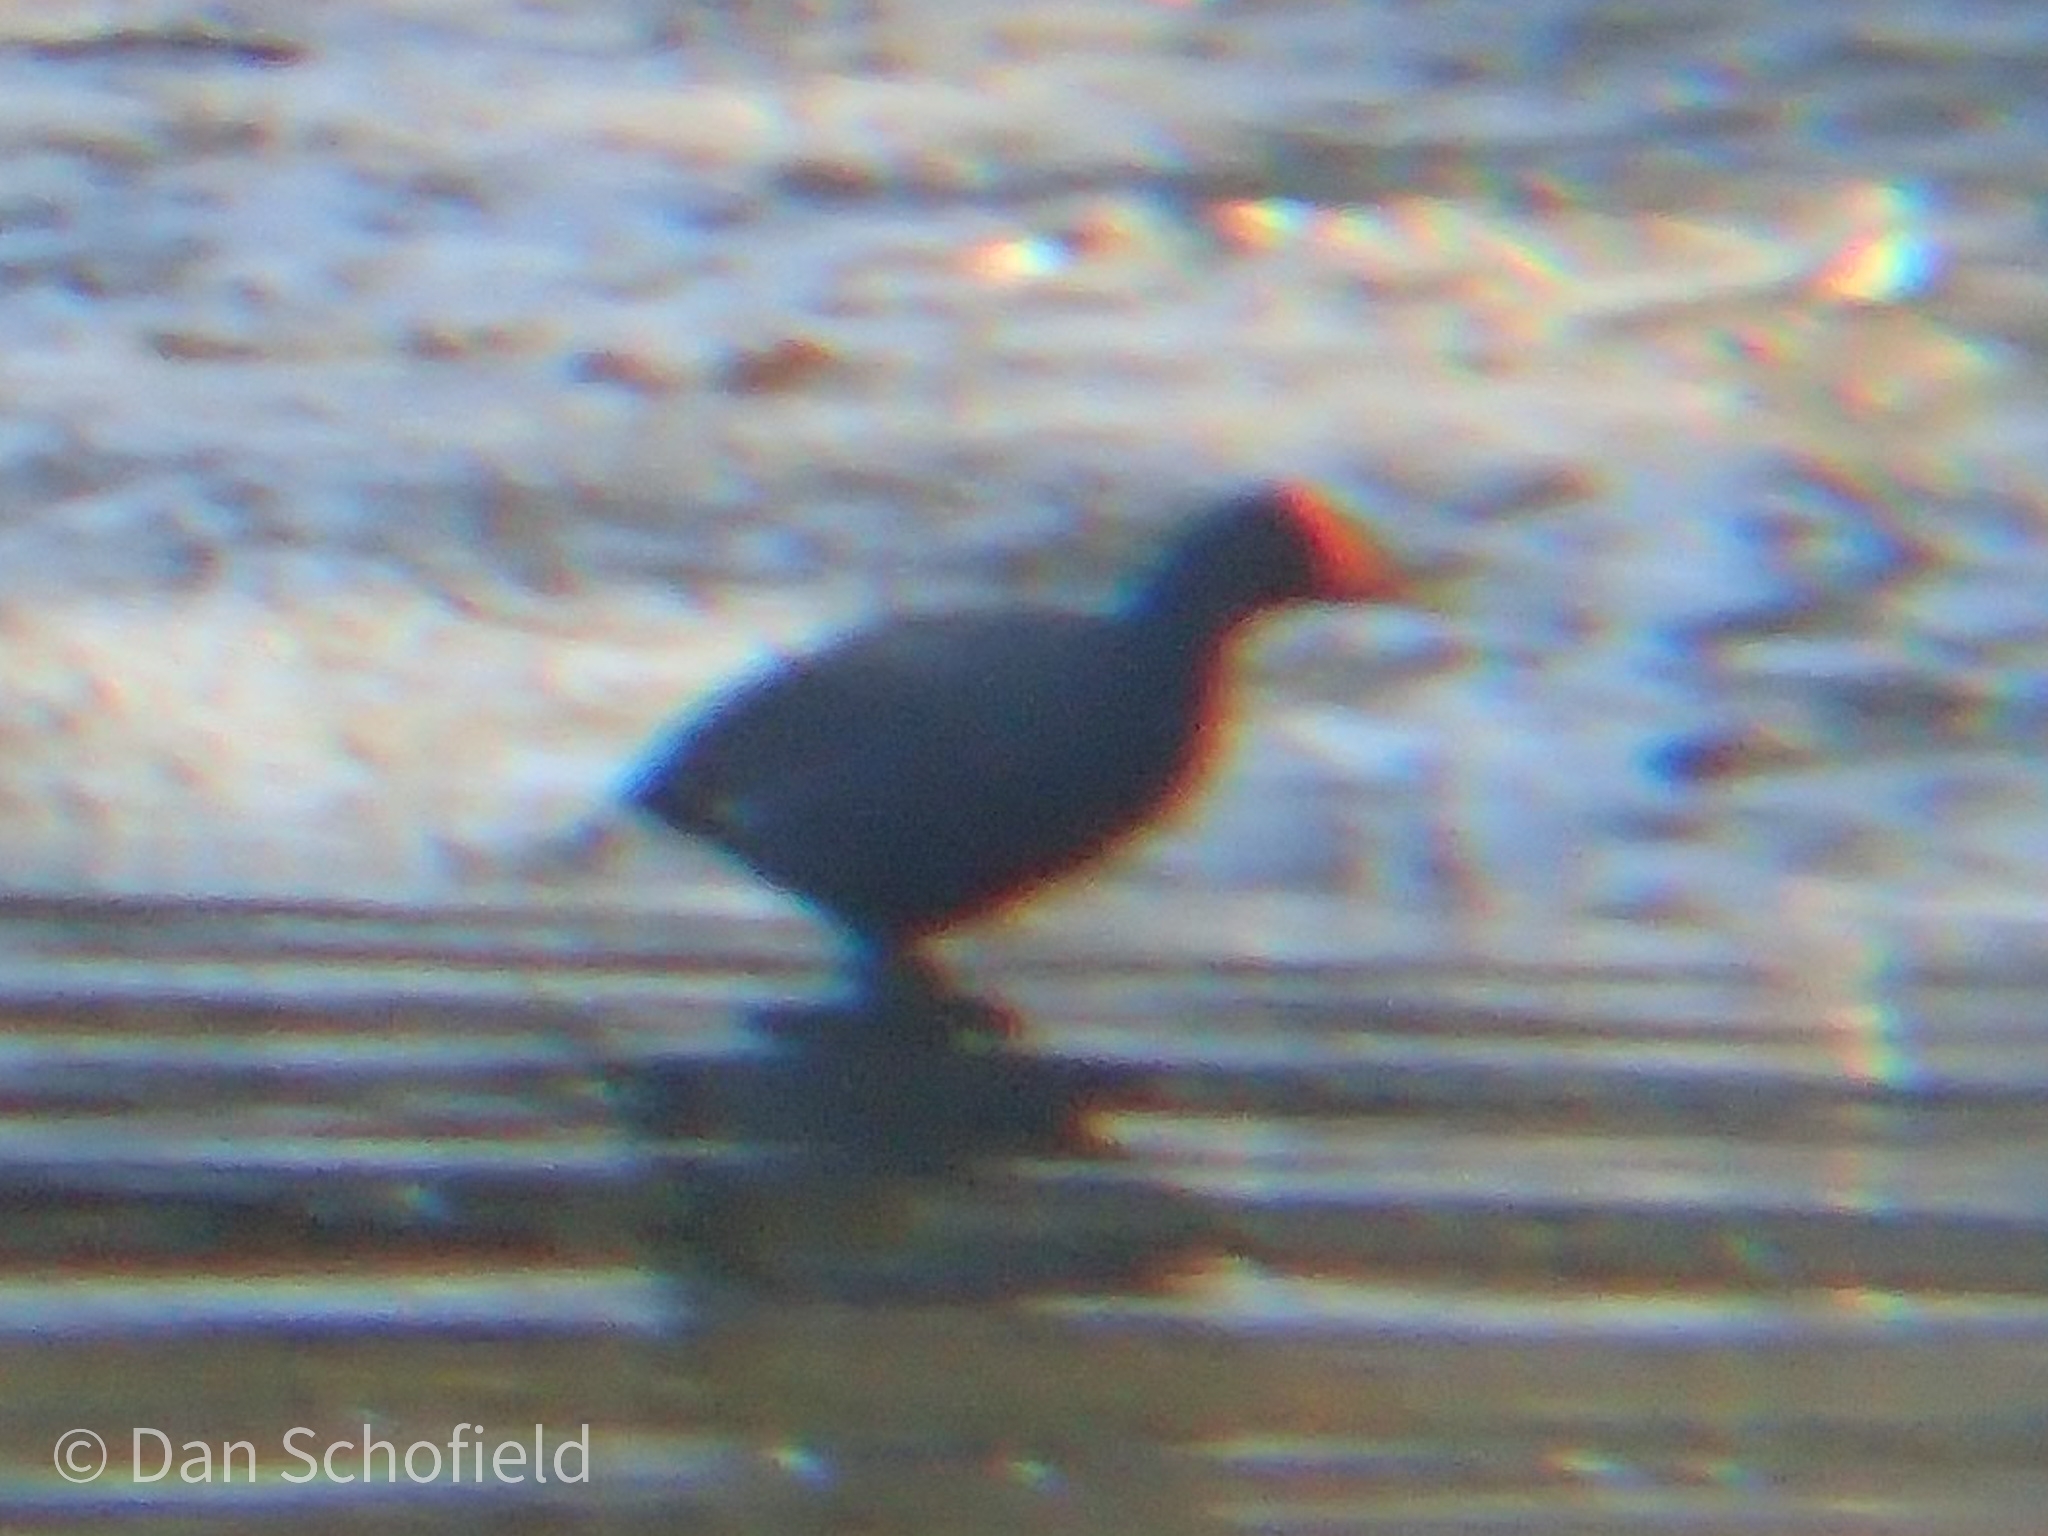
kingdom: Animalia
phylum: Chordata
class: Aves
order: Gruiformes
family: Rallidae
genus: Gallinula
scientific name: Gallinula chloropus
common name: Common moorhen
